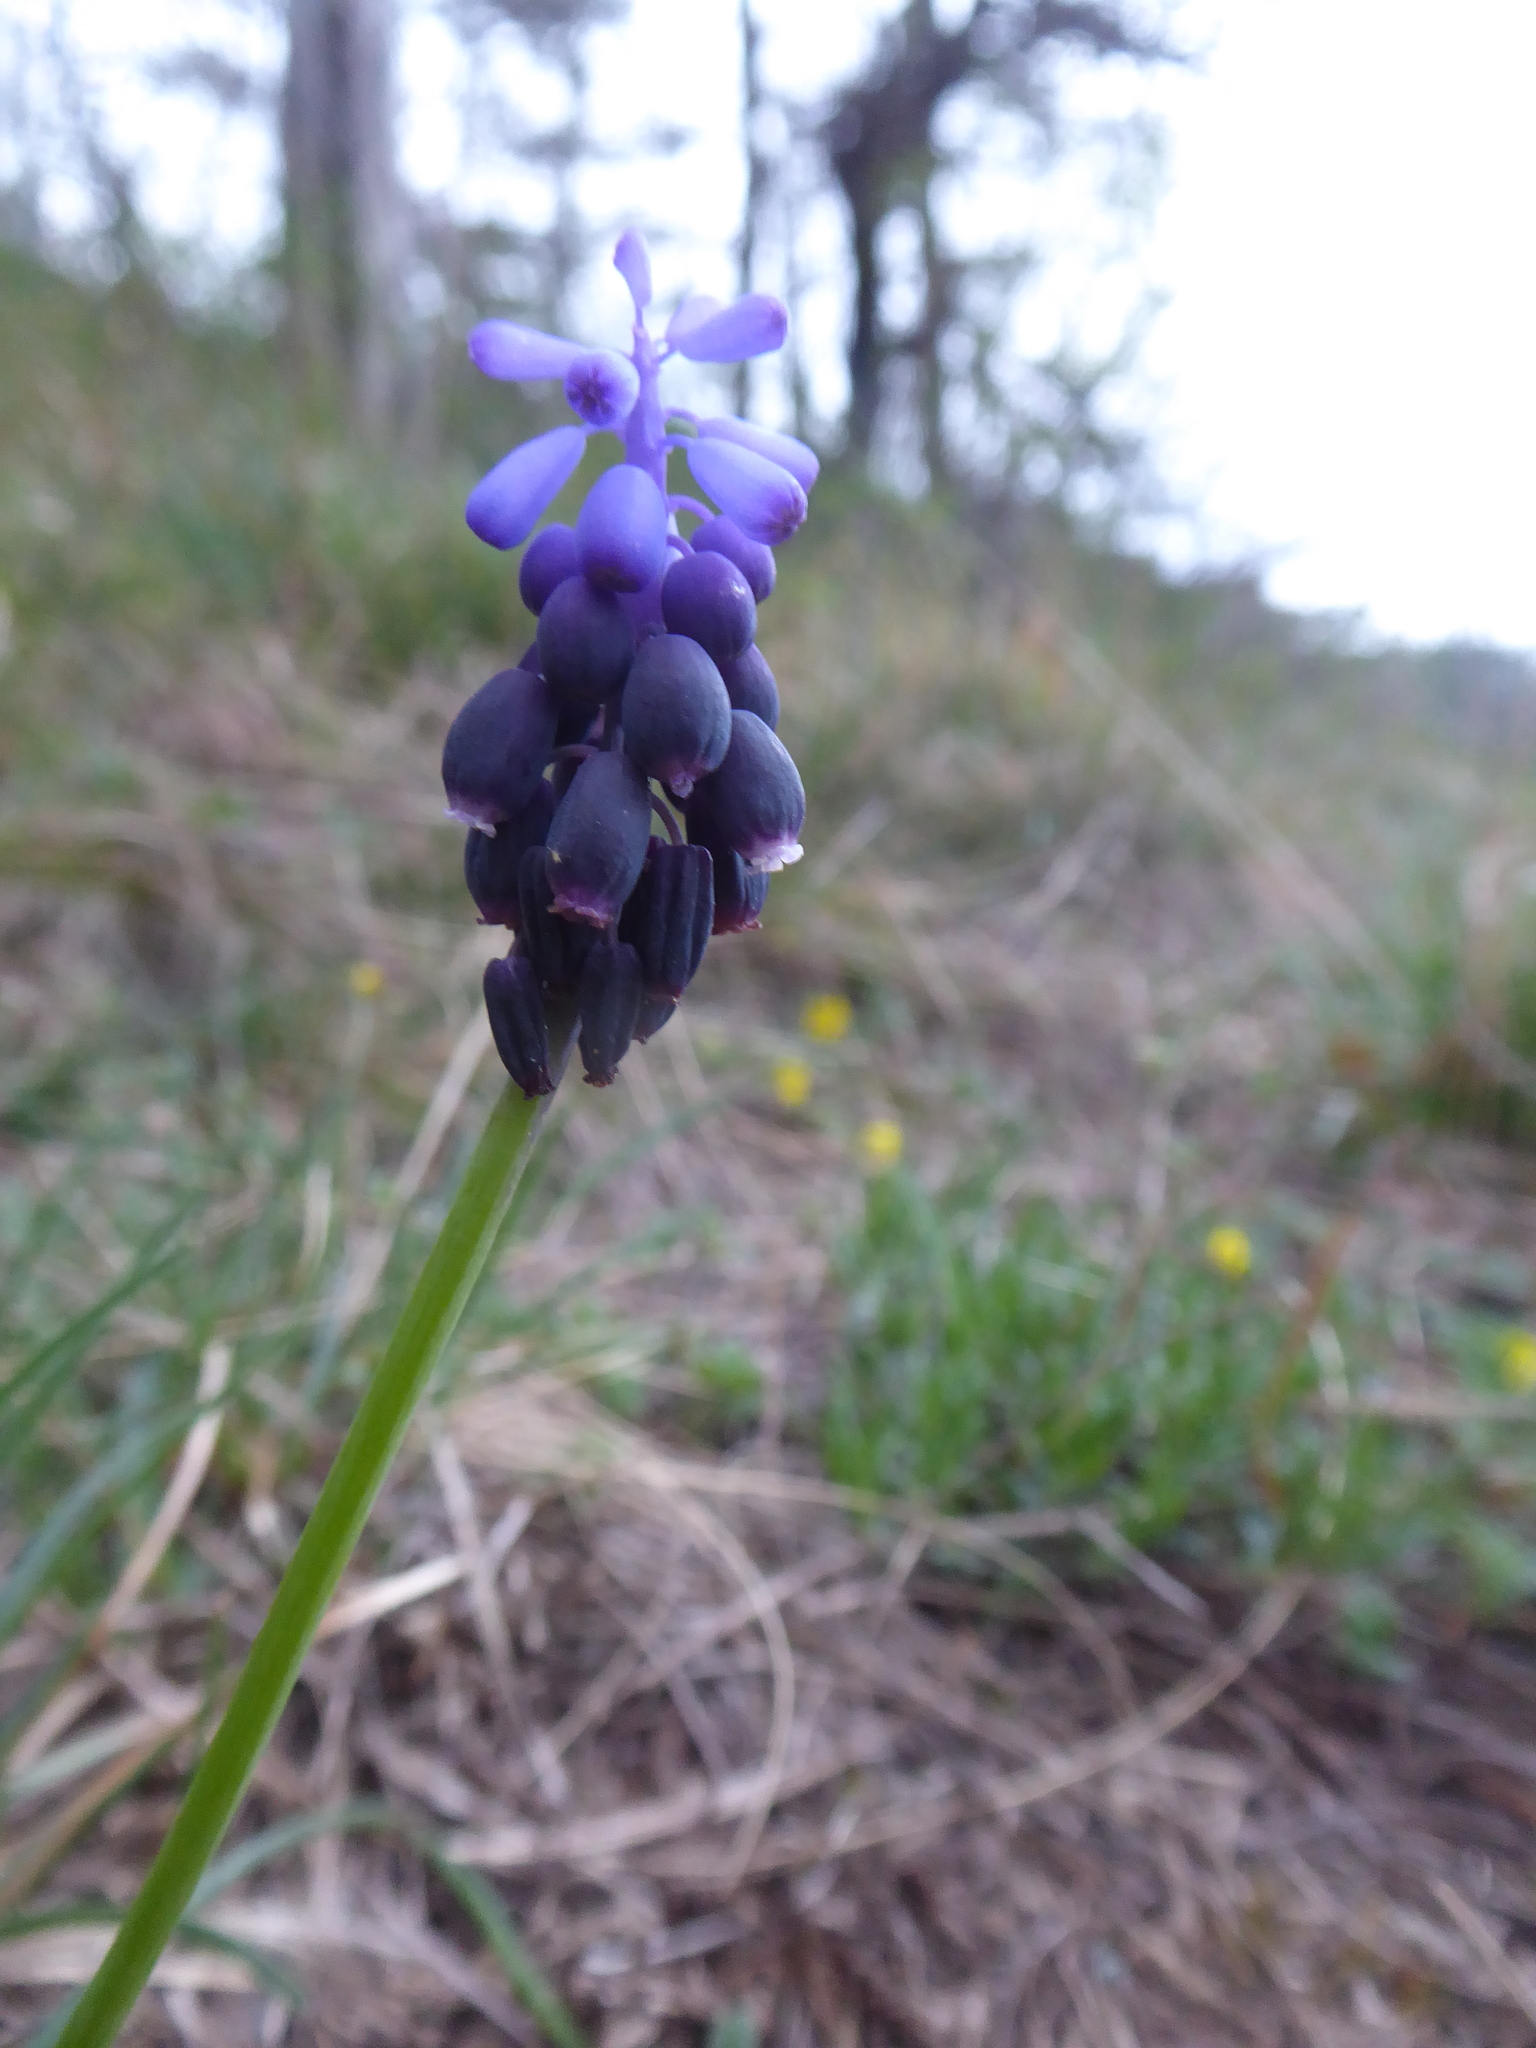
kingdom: Plantae
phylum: Tracheophyta
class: Liliopsida
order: Asparagales
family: Asparagaceae
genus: Muscari
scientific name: Muscari neglectum
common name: Grape-hyacinth
